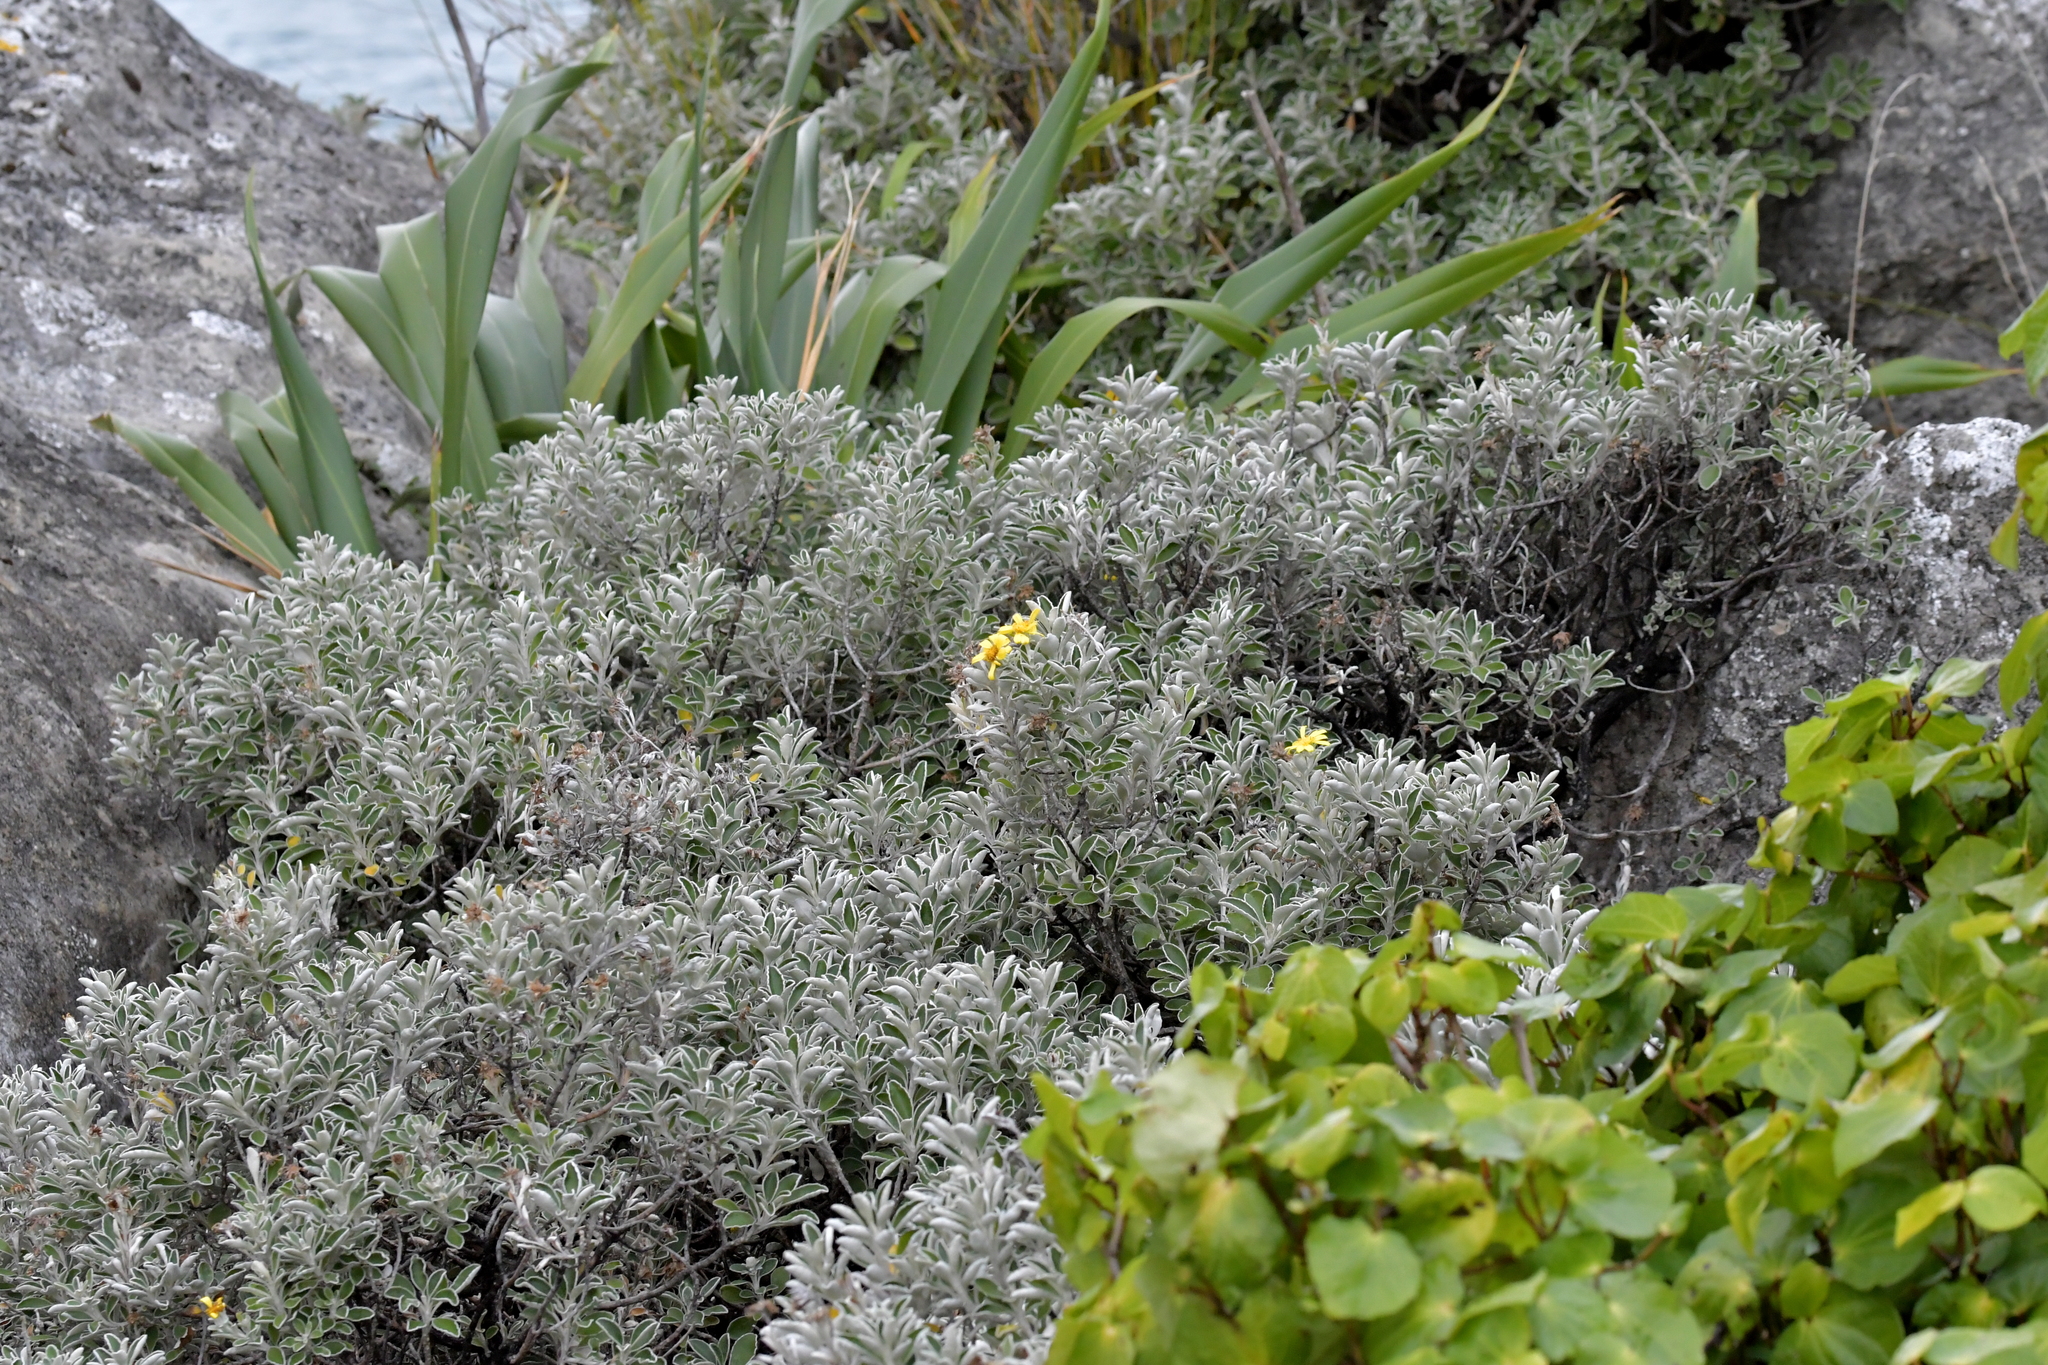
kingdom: Plantae
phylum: Tracheophyta
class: Magnoliopsida
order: Asterales
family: Asteraceae
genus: Brachyglottis
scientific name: Brachyglottis compacta
